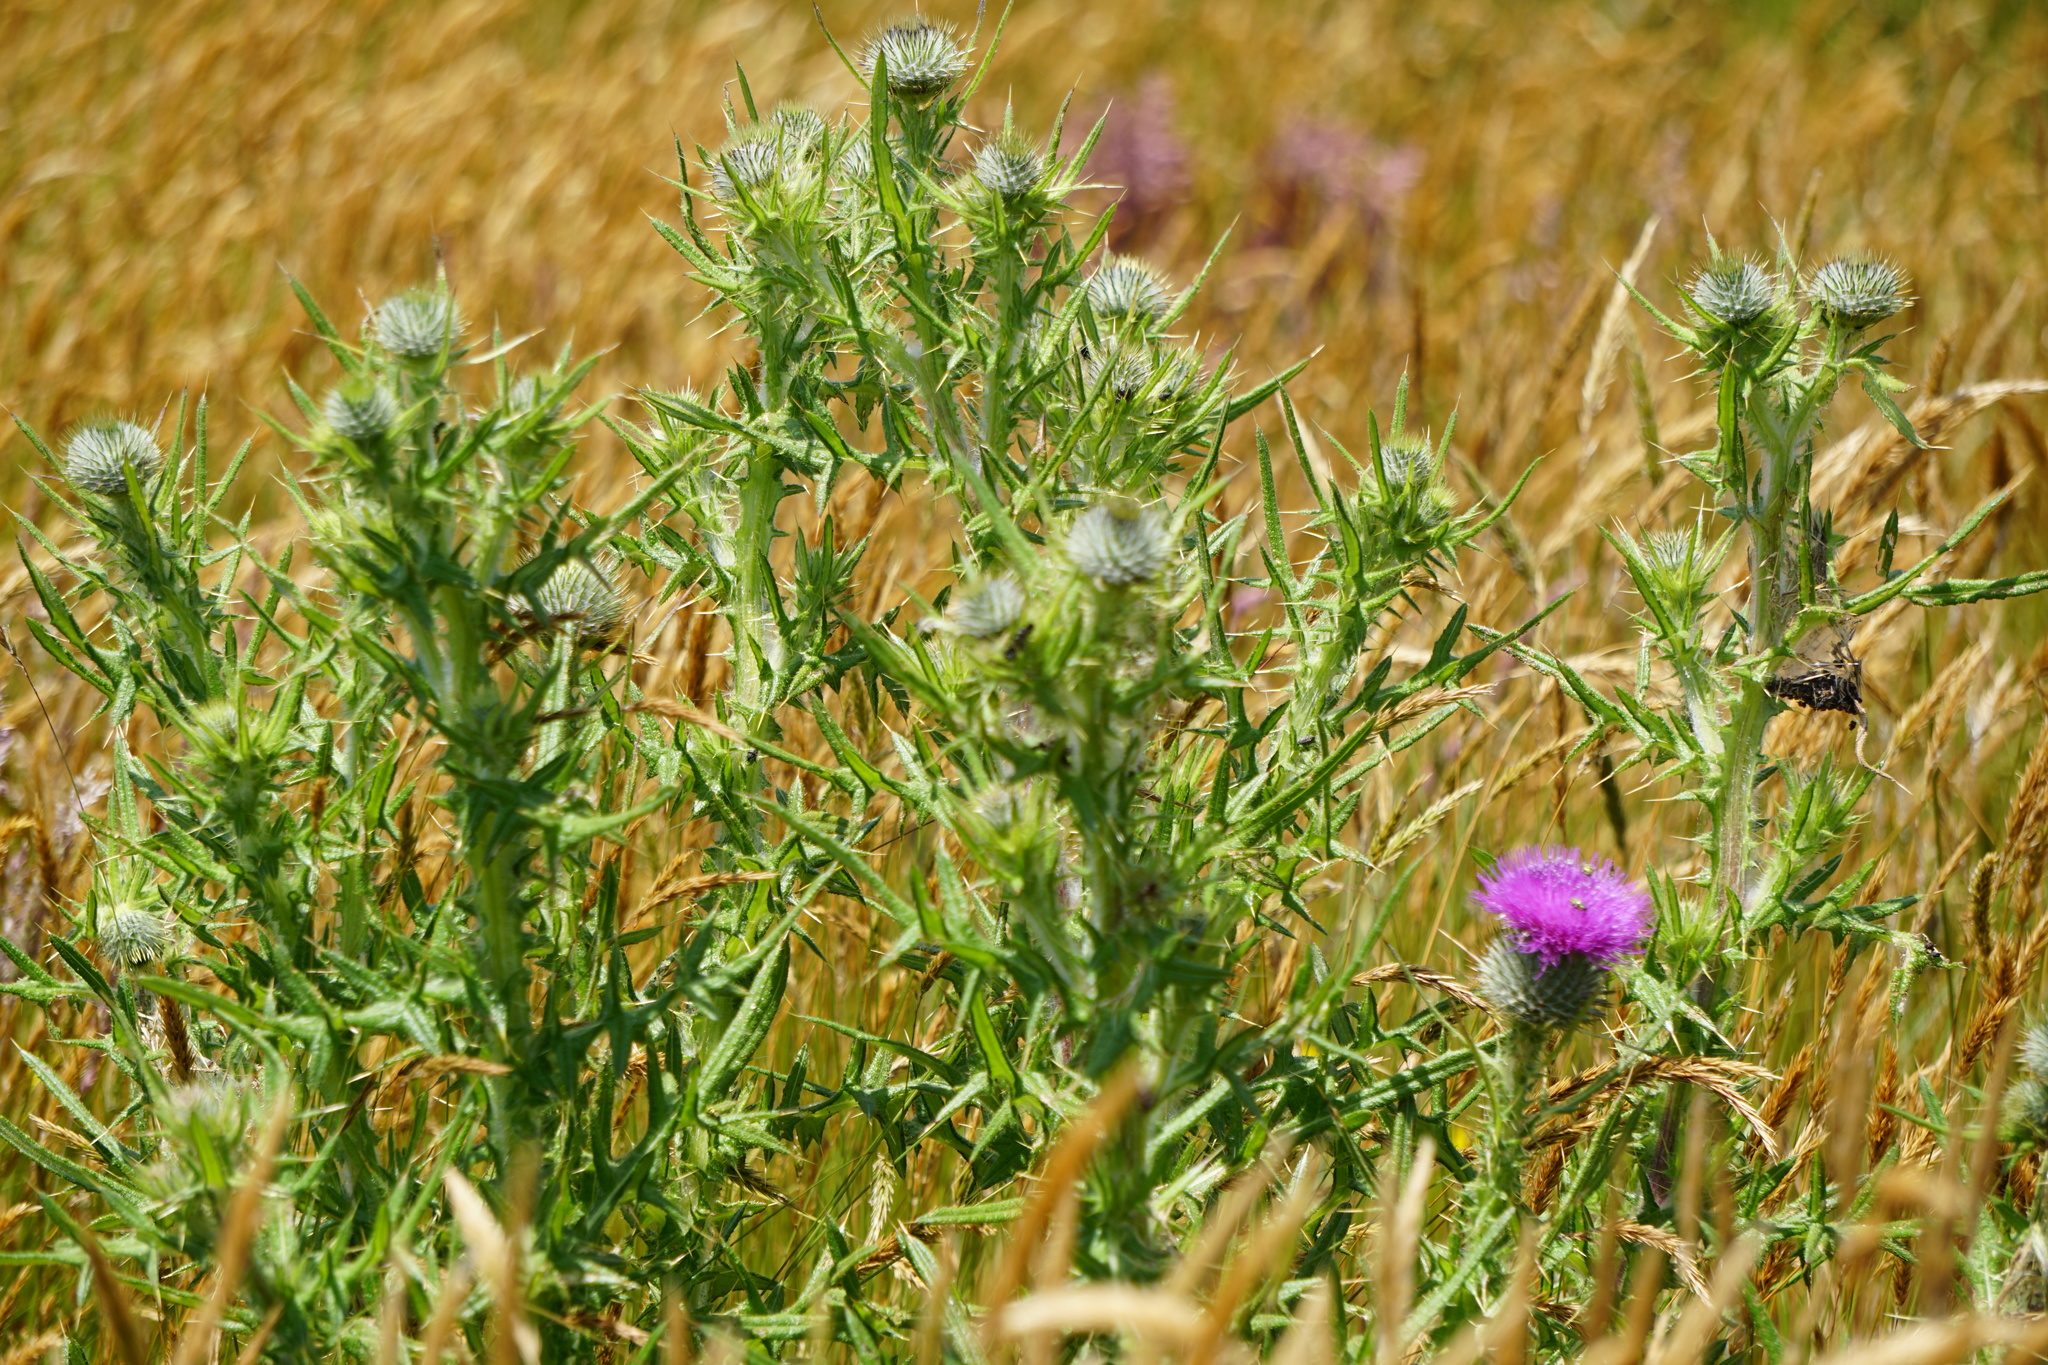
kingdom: Plantae
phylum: Tracheophyta
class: Magnoliopsida
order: Asterales
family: Asteraceae
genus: Cirsium
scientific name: Cirsium vulgare
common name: Bull thistle
